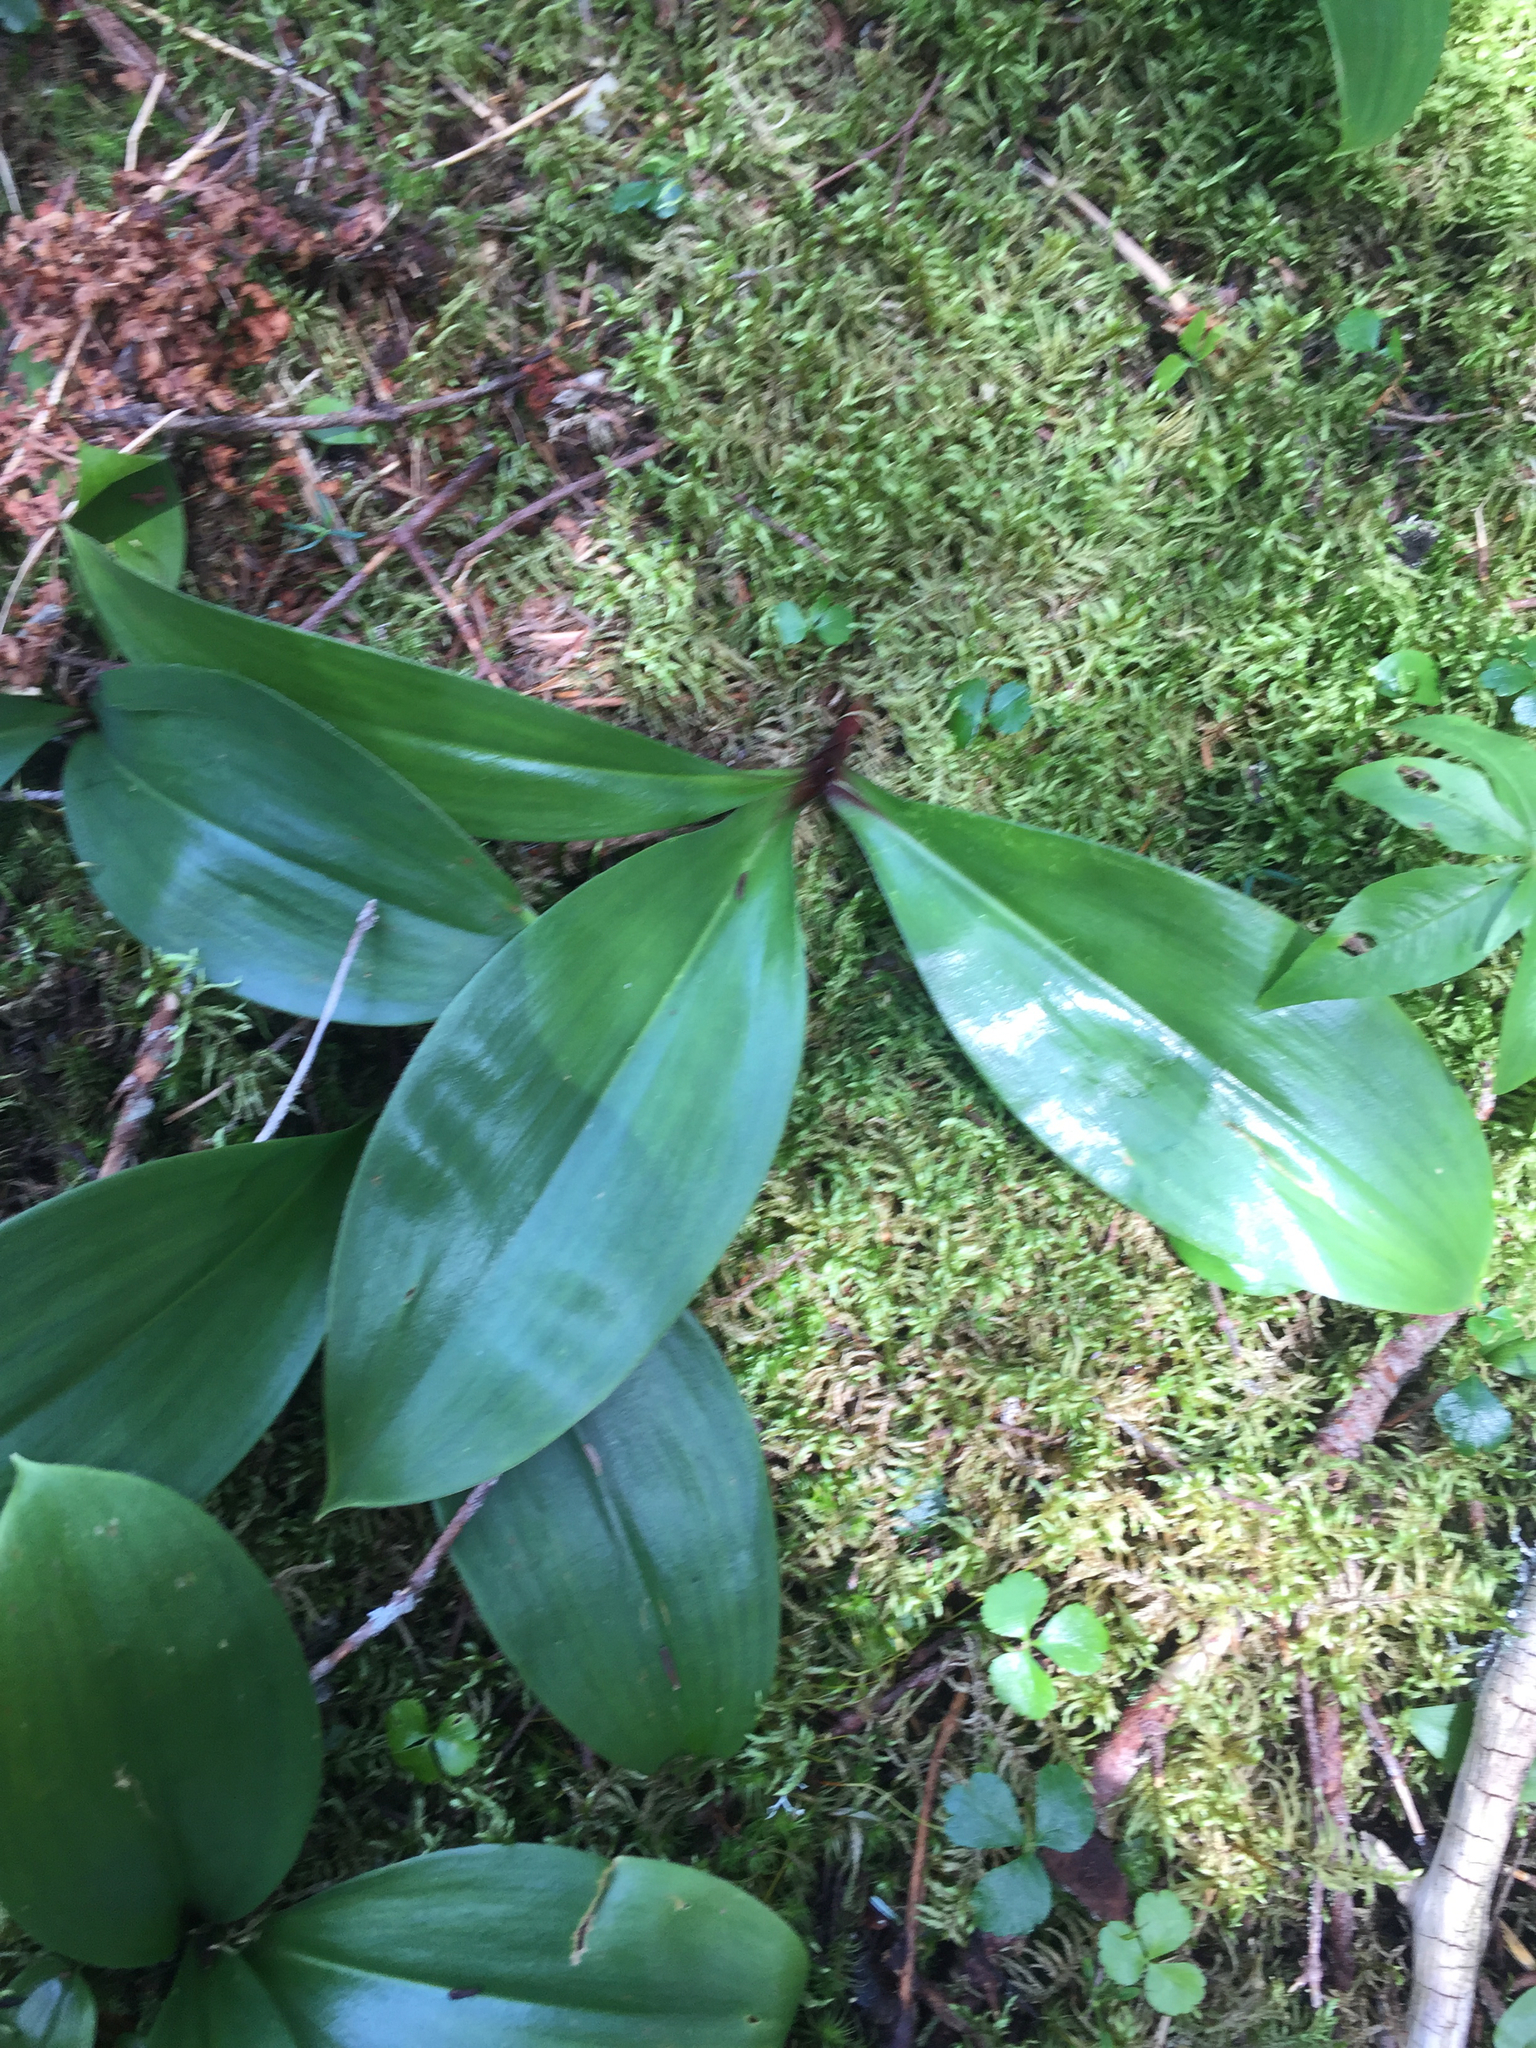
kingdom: Plantae
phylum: Tracheophyta
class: Liliopsida
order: Liliales
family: Liliaceae
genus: Clintonia
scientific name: Clintonia borealis
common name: Yellow clintonia
